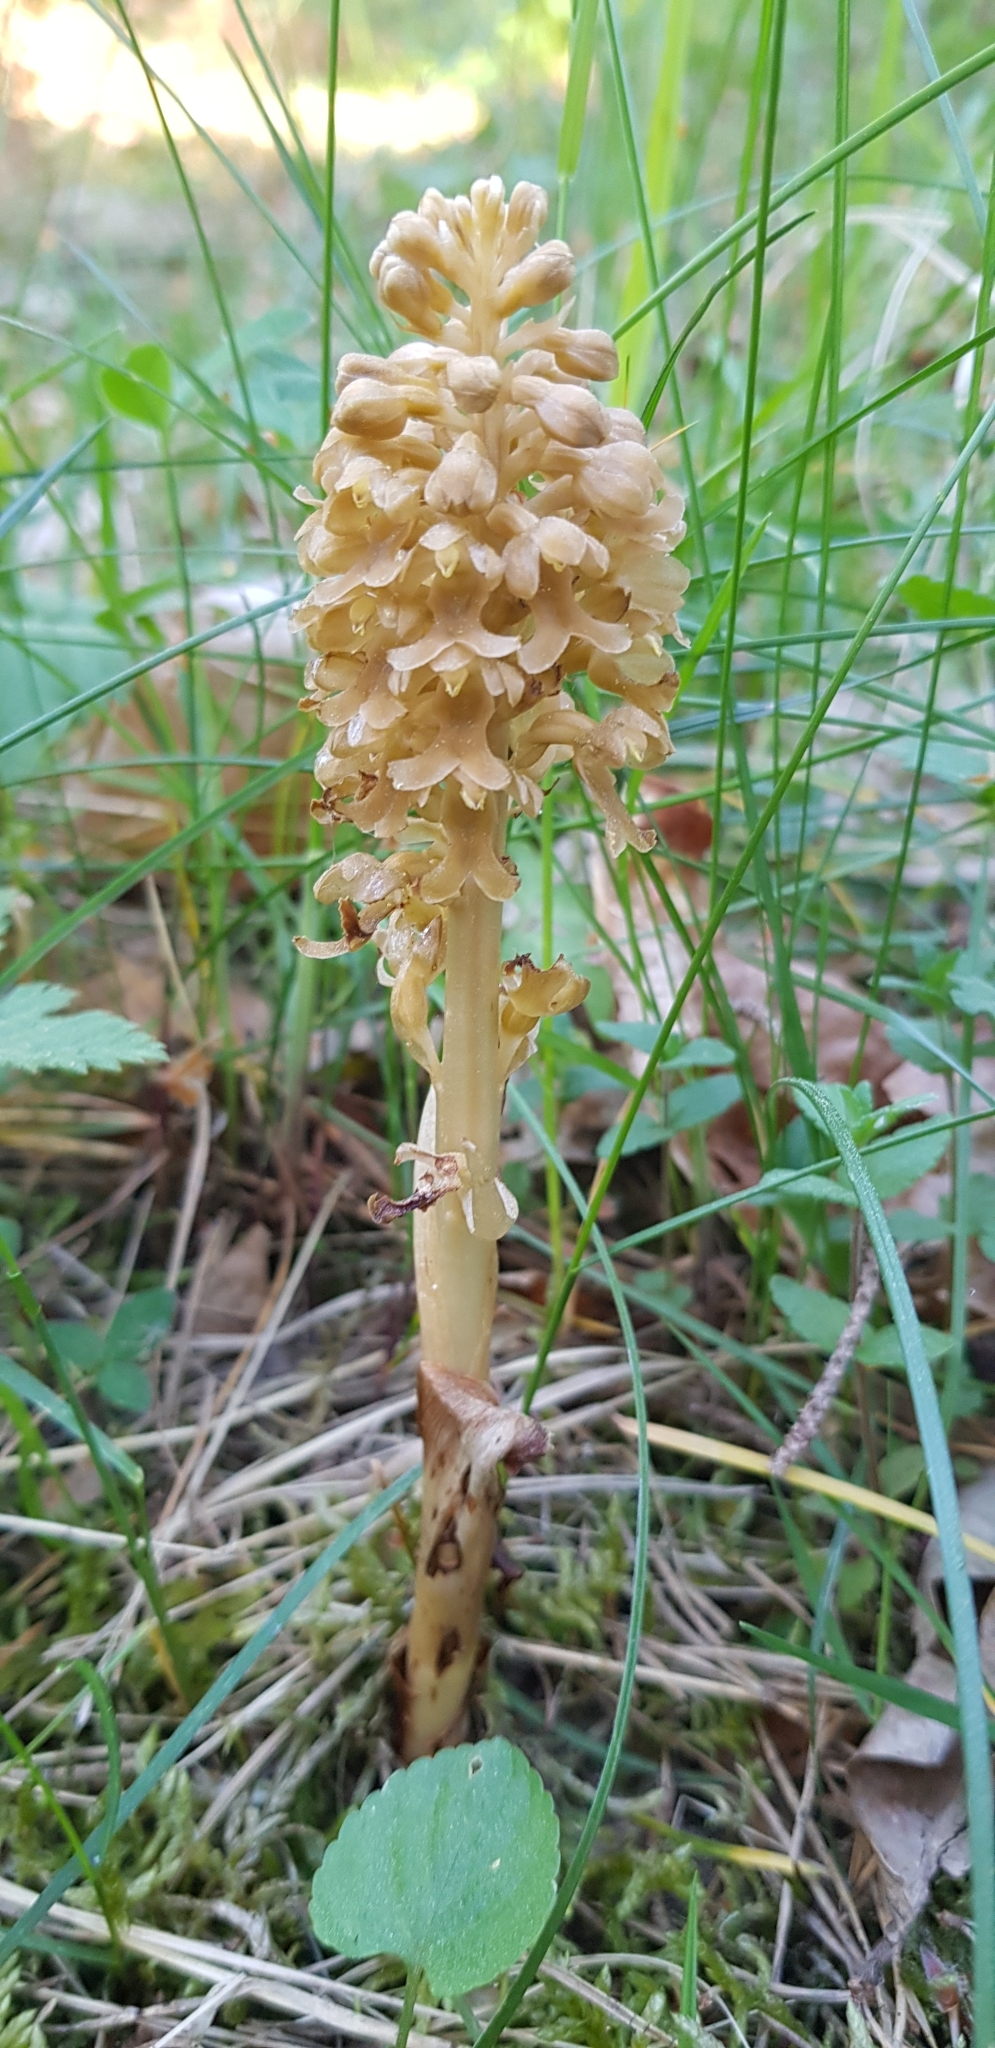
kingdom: Plantae
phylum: Tracheophyta
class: Liliopsida
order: Asparagales
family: Orchidaceae
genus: Neottia
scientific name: Neottia nidus-avis
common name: Bird's-nest orchid
